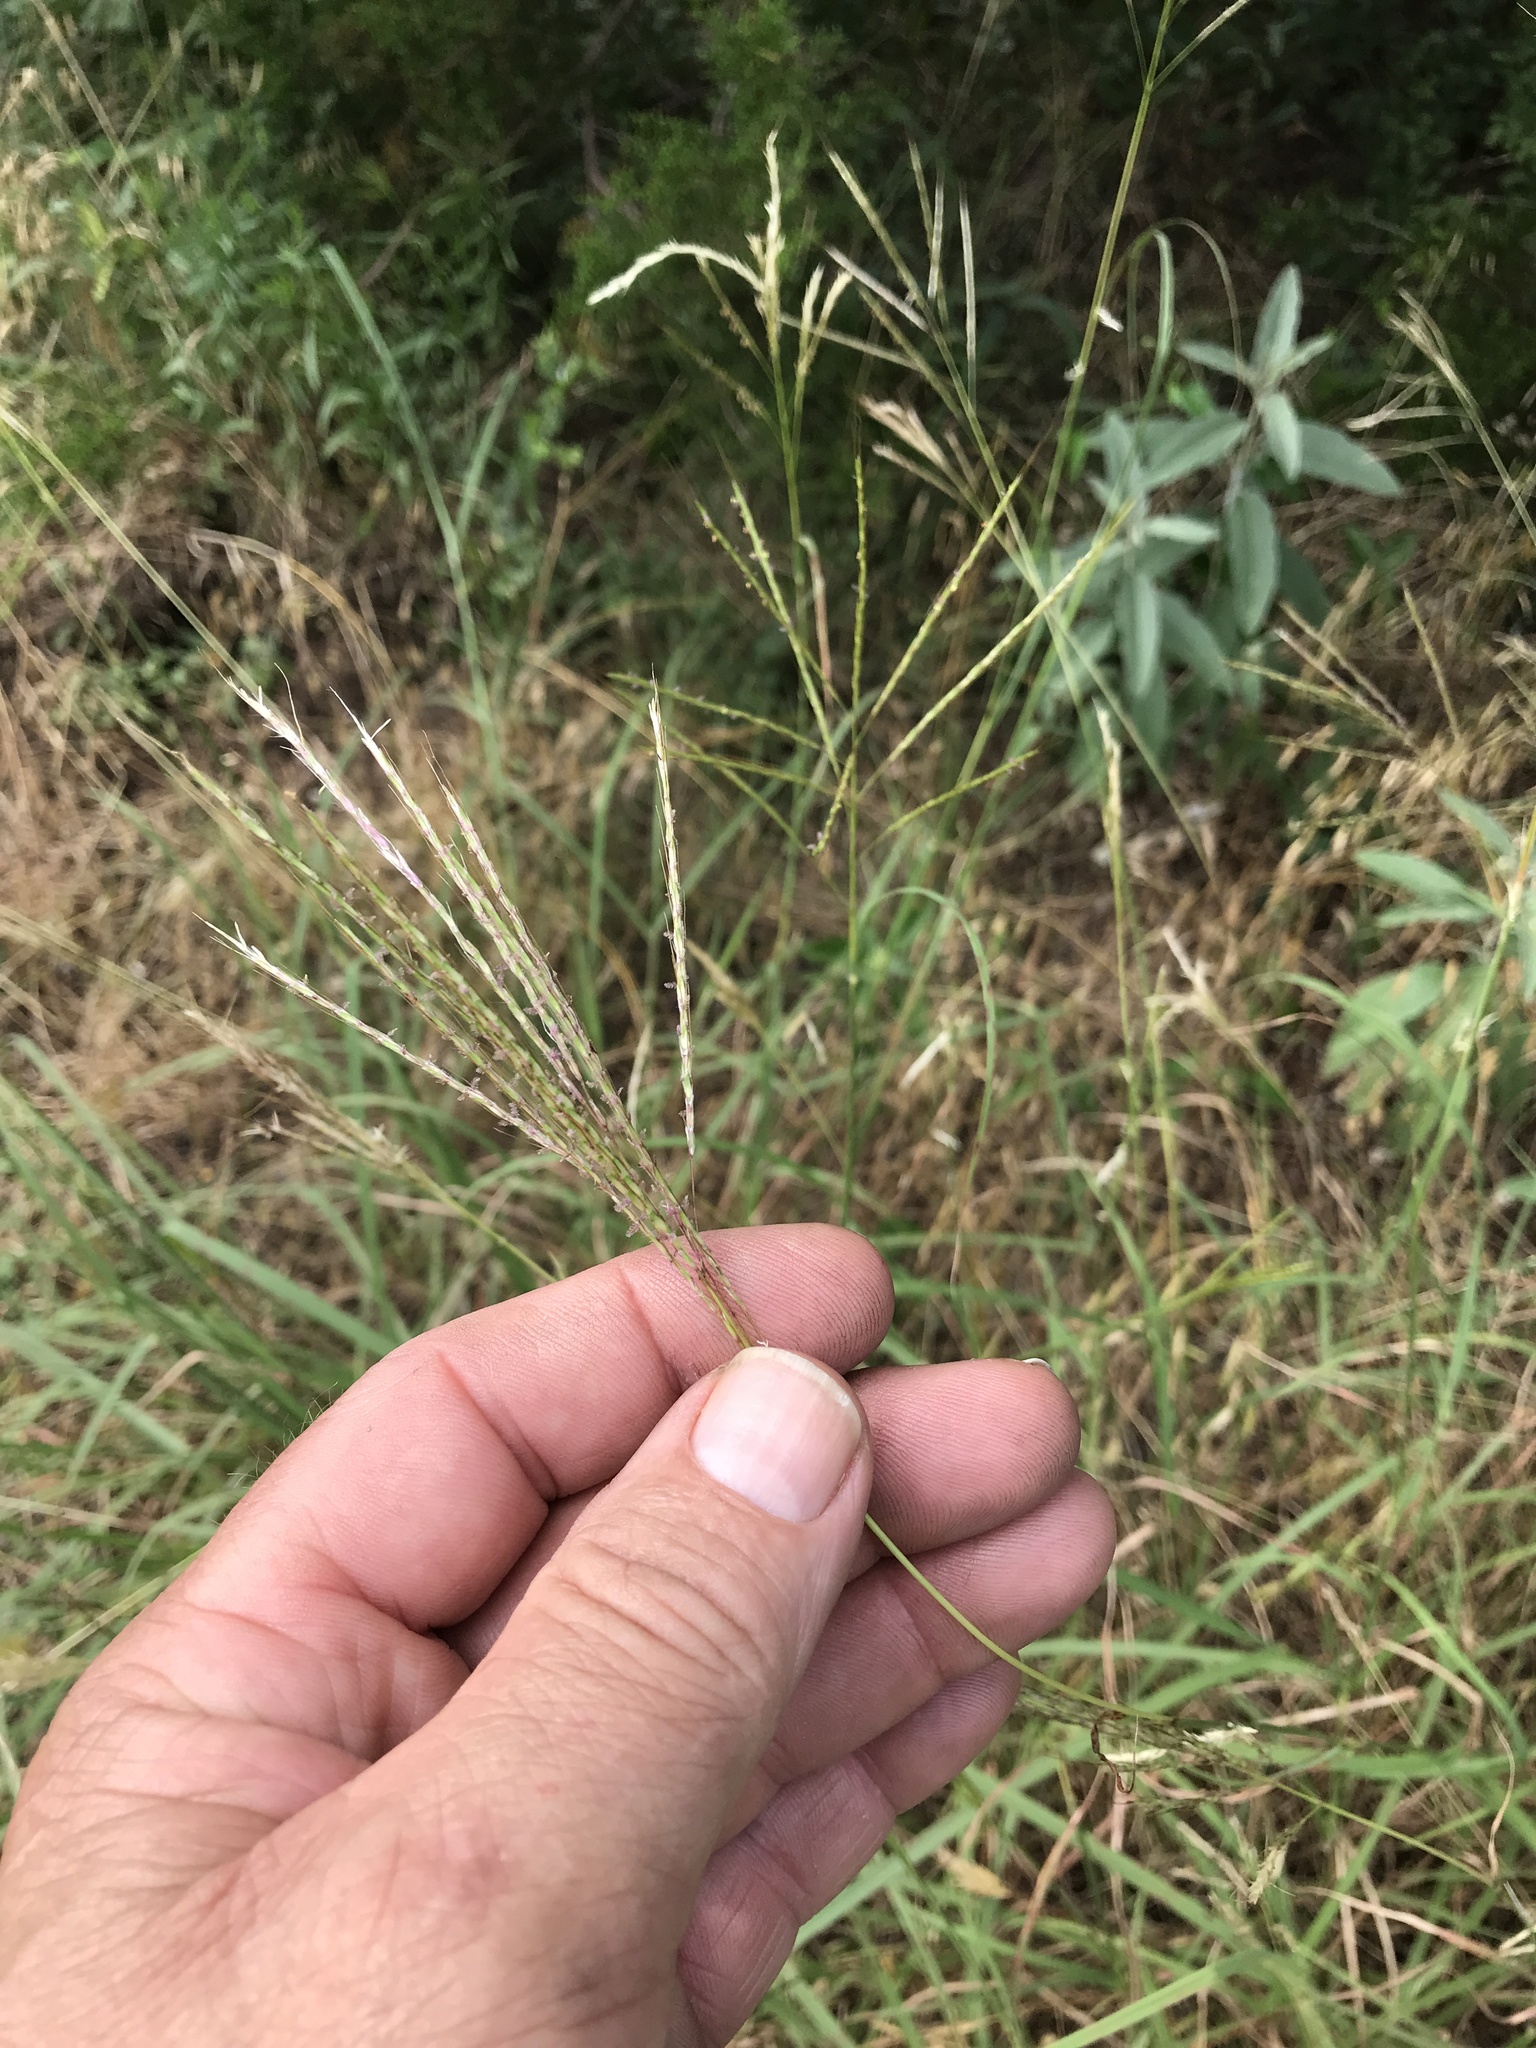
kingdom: Plantae
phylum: Tracheophyta
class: Liliopsida
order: Poales
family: Poaceae
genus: Bothriochloa
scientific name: Bothriochloa ischaemum
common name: Yellow bluestem
